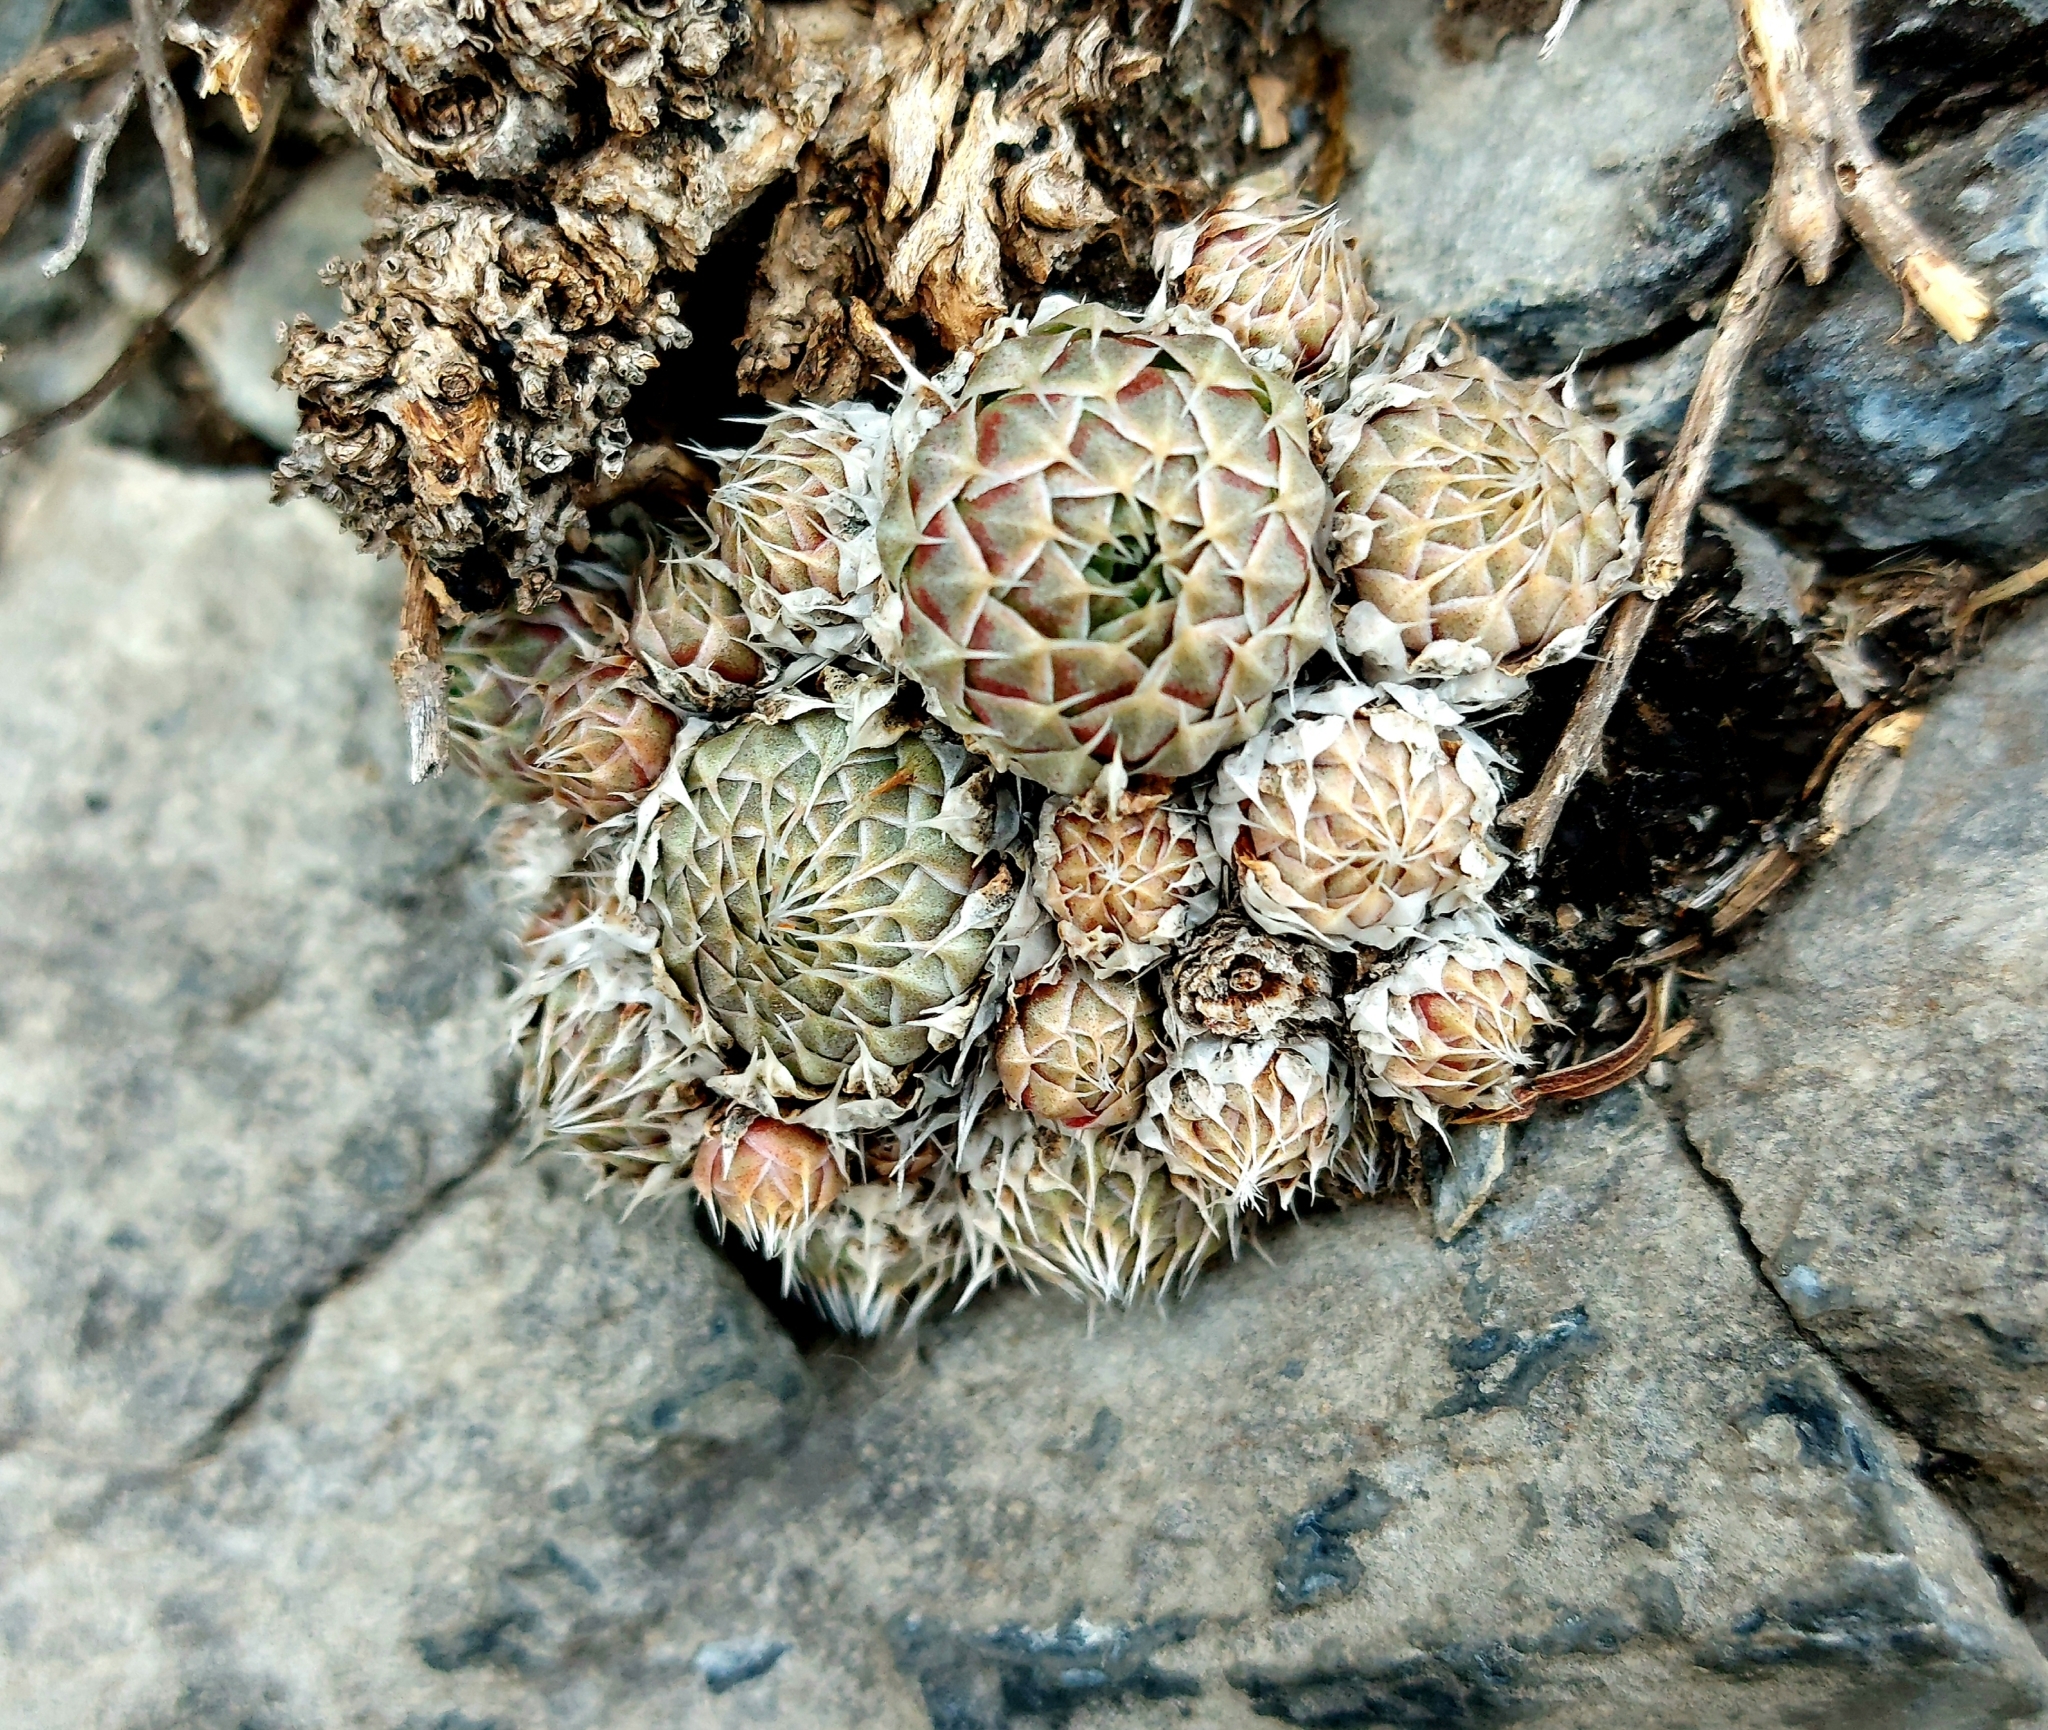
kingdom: Plantae
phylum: Tracheophyta
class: Magnoliopsida
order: Saxifragales
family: Crassulaceae
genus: Orostachys
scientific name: Orostachys spinosa
